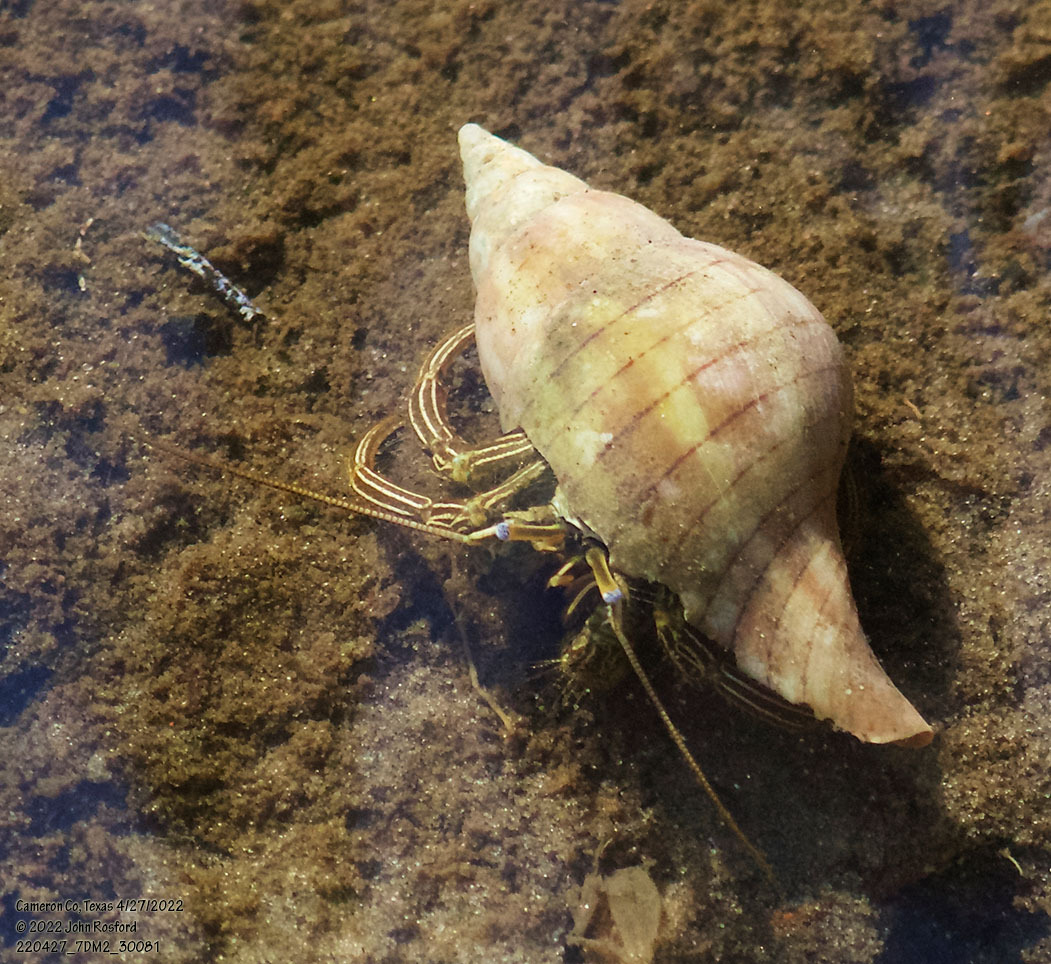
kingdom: Animalia
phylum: Arthropoda
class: Malacostraca
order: Decapoda
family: Diogenidae
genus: Clibanarius
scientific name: Clibanarius vittatus
